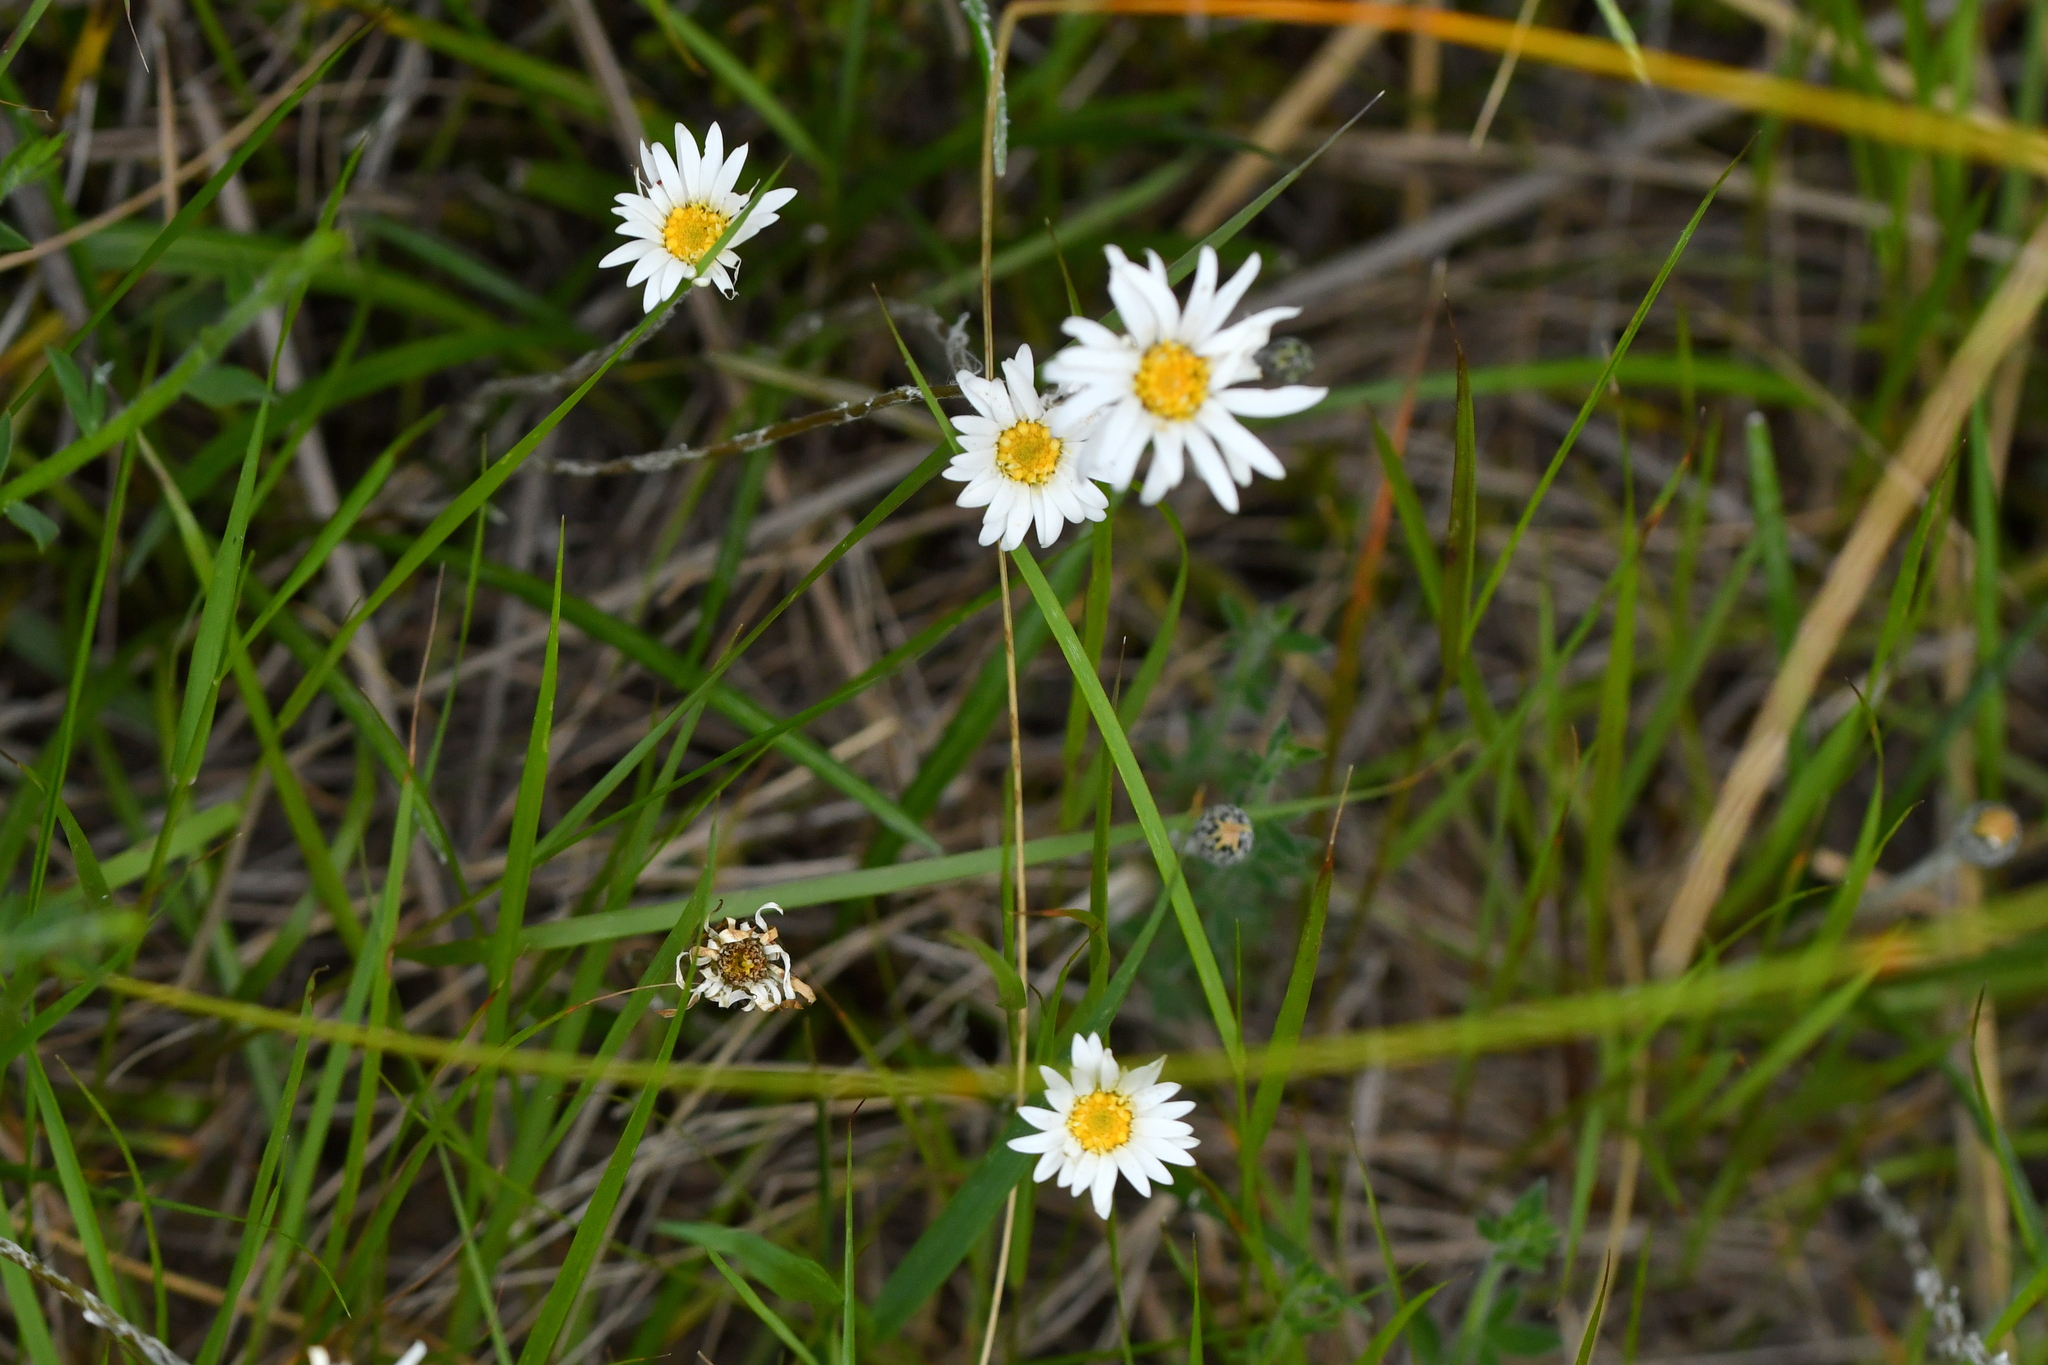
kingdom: Plantae
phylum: Tracheophyta
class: Magnoliopsida
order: Asterales
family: Asteraceae
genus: Celmisia
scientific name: Celmisia gracilenta
